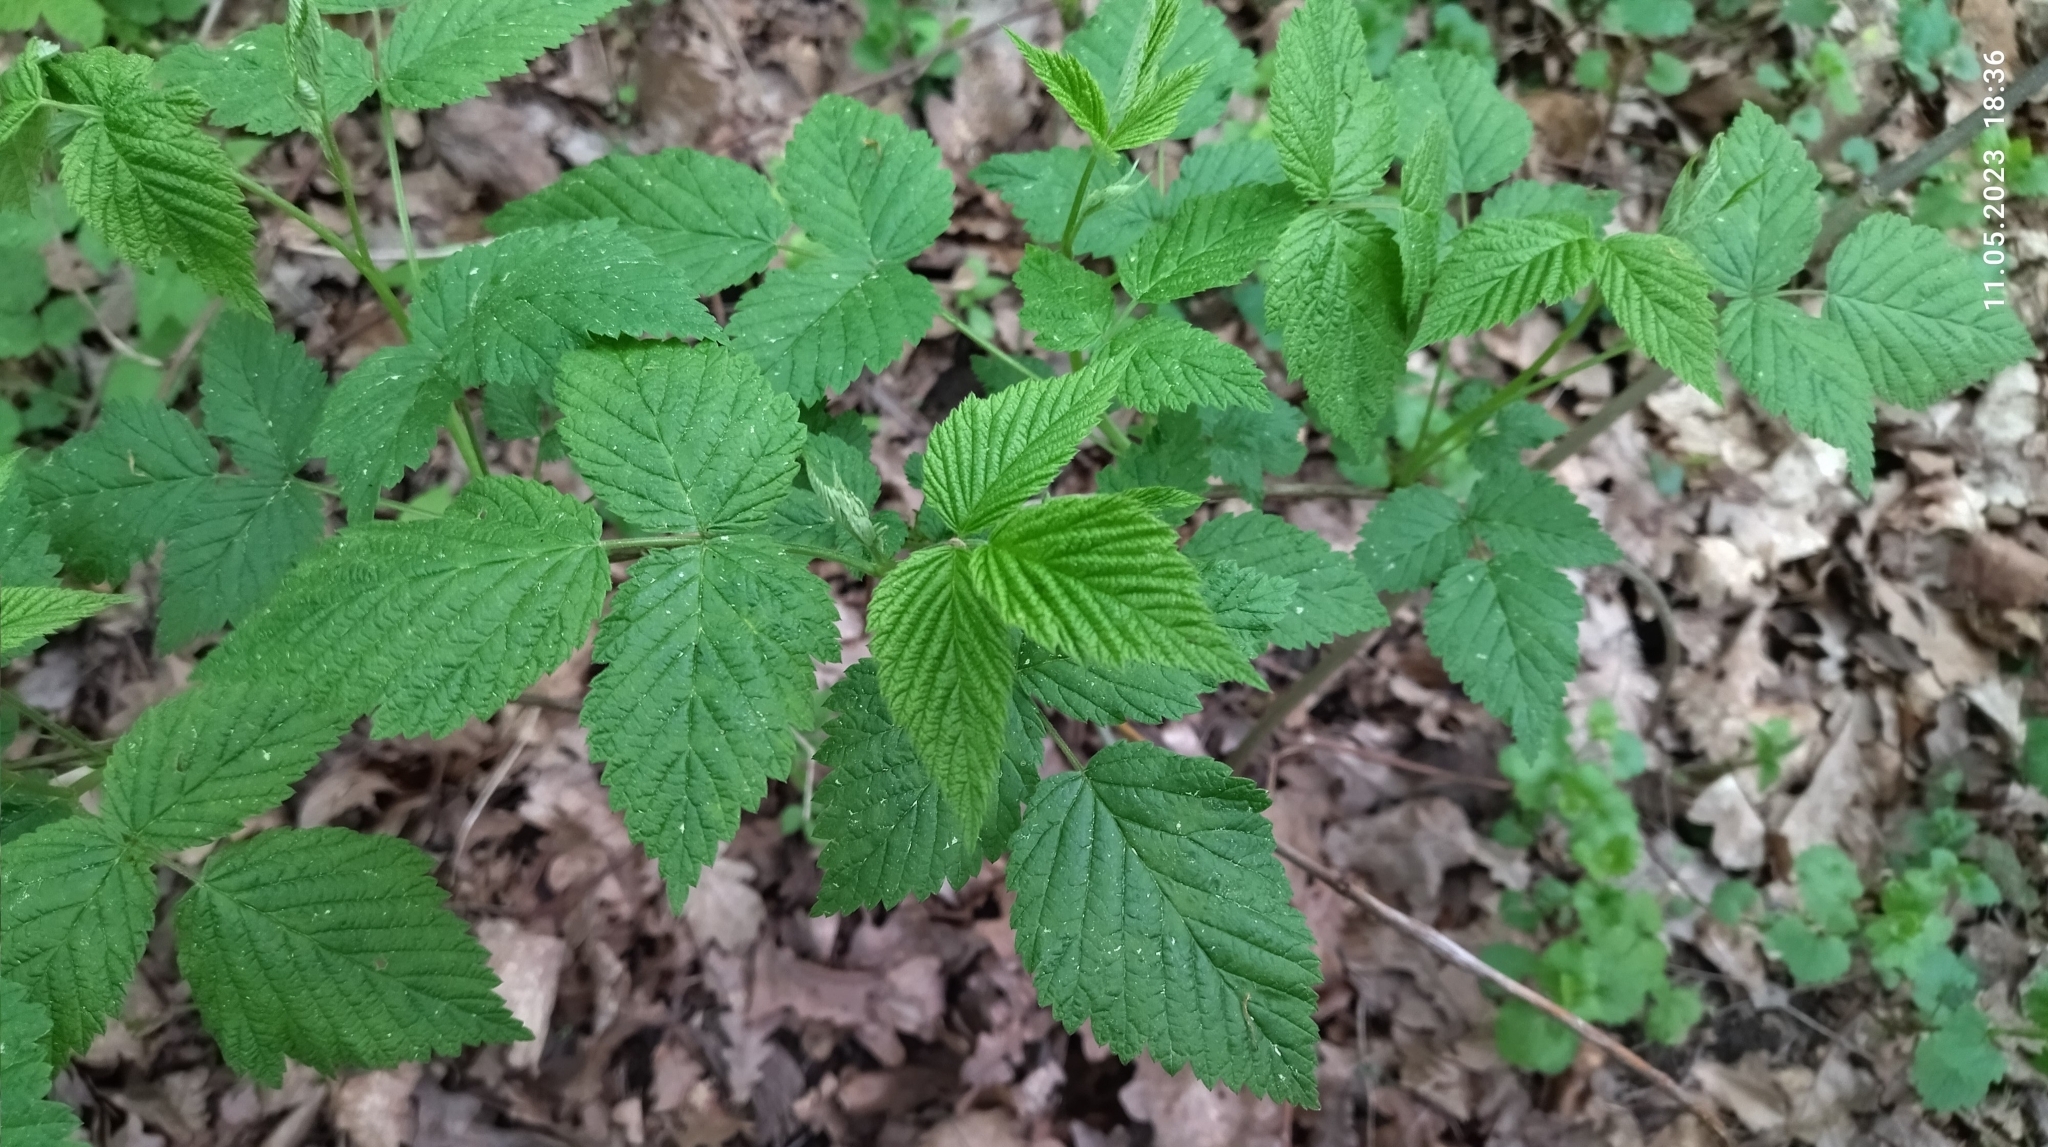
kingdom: Plantae
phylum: Tracheophyta
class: Magnoliopsida
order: Rosales
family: Rosaceae
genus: Rubus
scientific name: Rubus idaeus
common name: Raspberry
